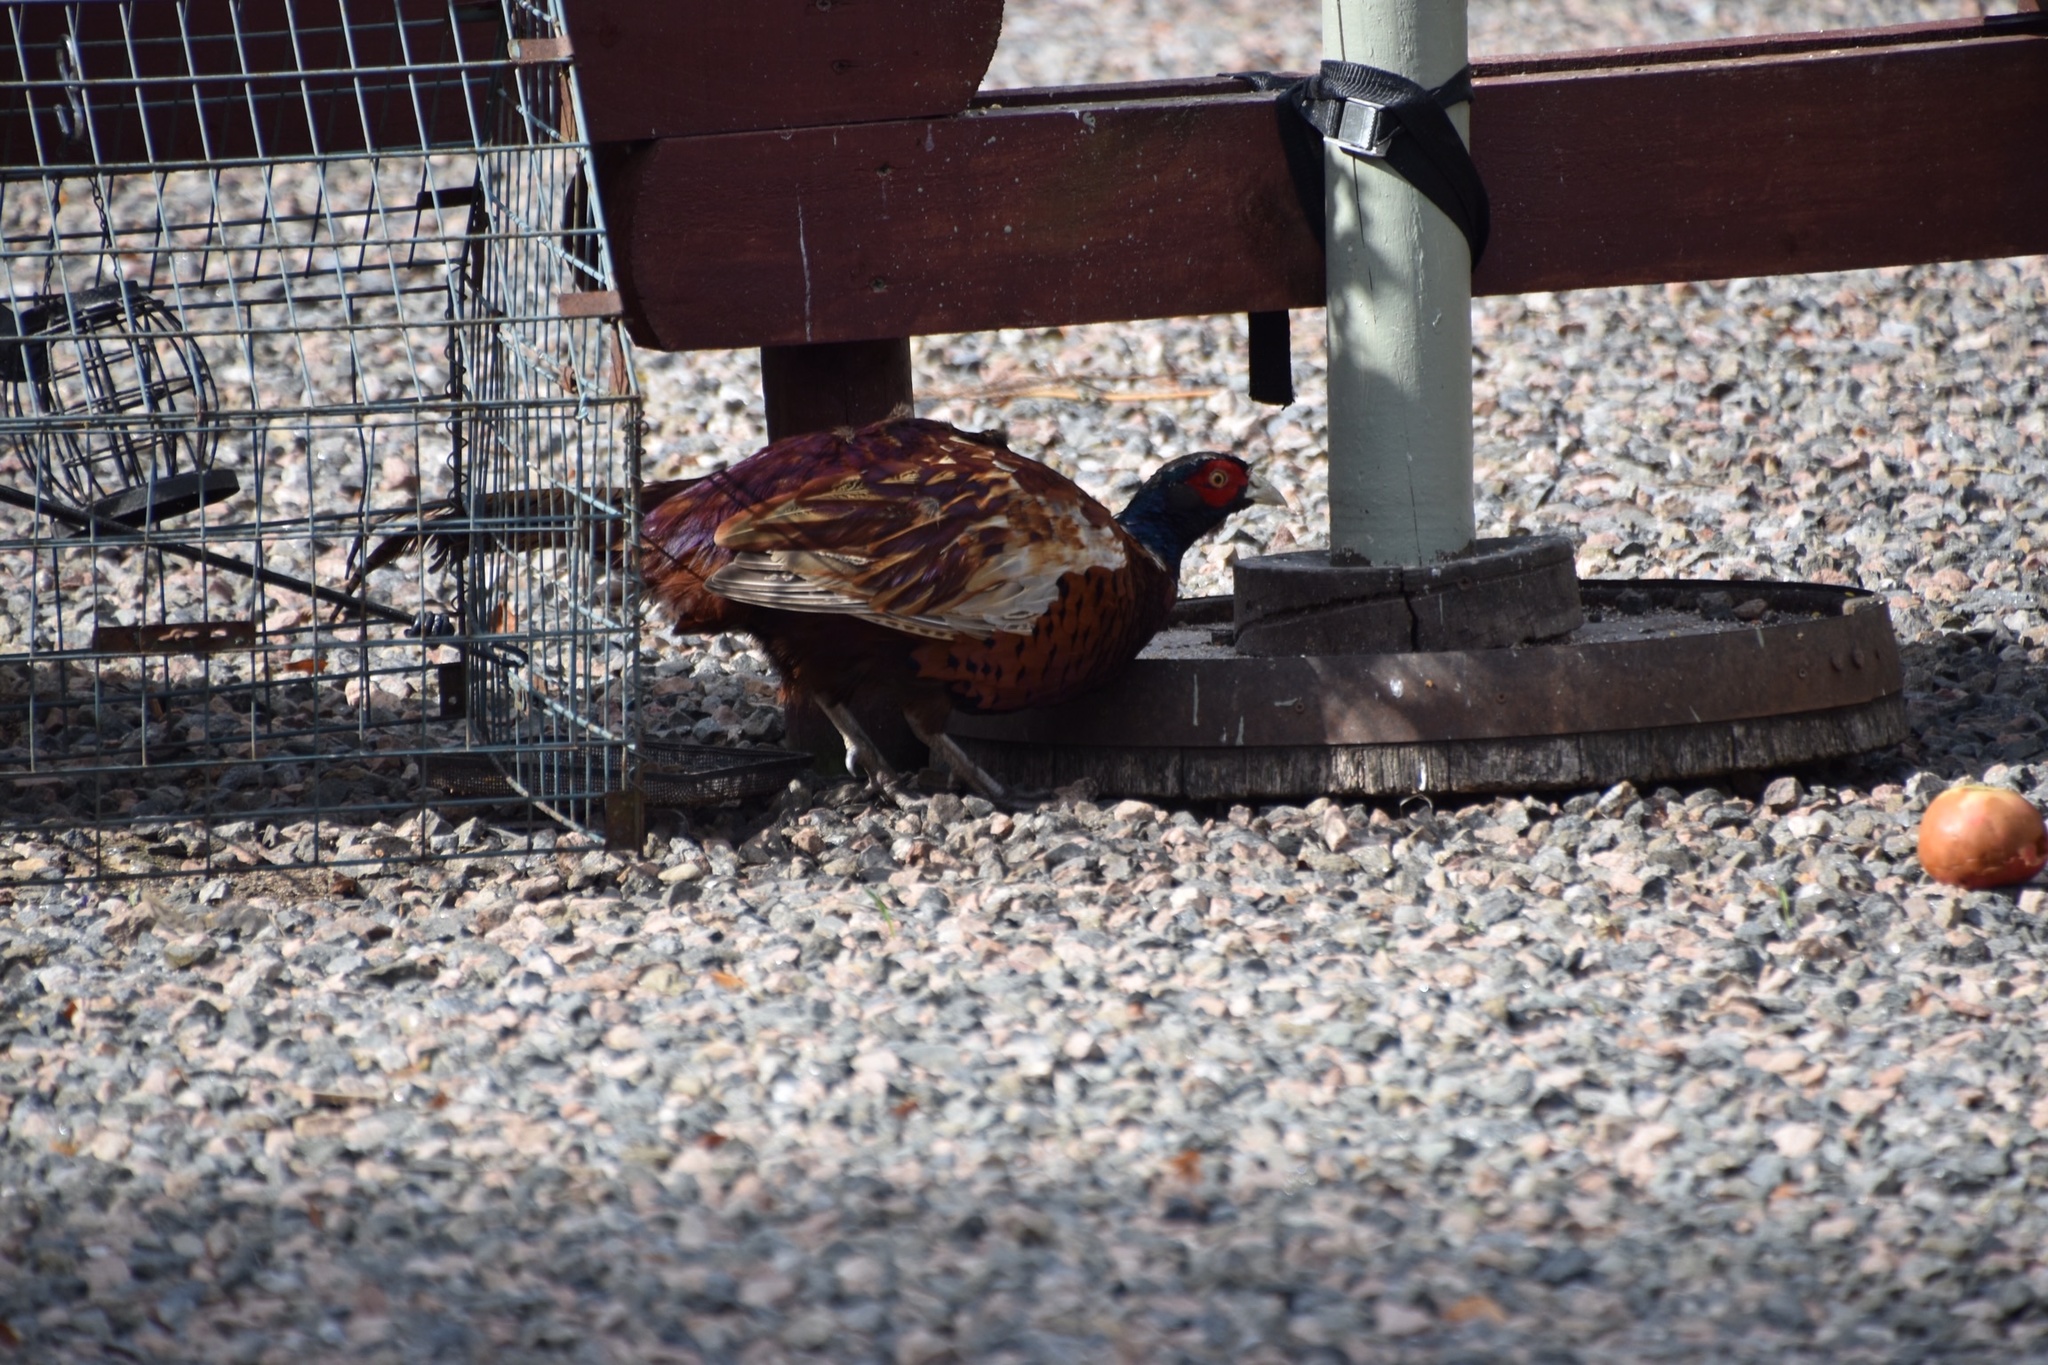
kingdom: Animalia
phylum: Chordata
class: Aves
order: Galliformes
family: Phasianidae
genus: Phasianus
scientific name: Phasianus colchicus
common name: Common pheasant
